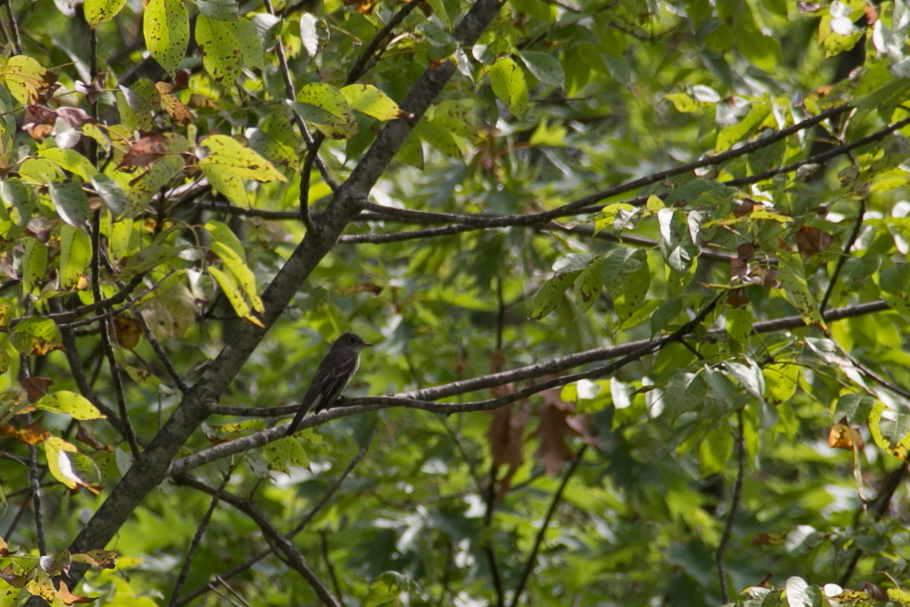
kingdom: Animalia
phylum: Chordata
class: Aves
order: Passeriformes
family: Tyrannidae
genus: Contopus
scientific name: Contopus virens
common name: Eastern wood-pewee
